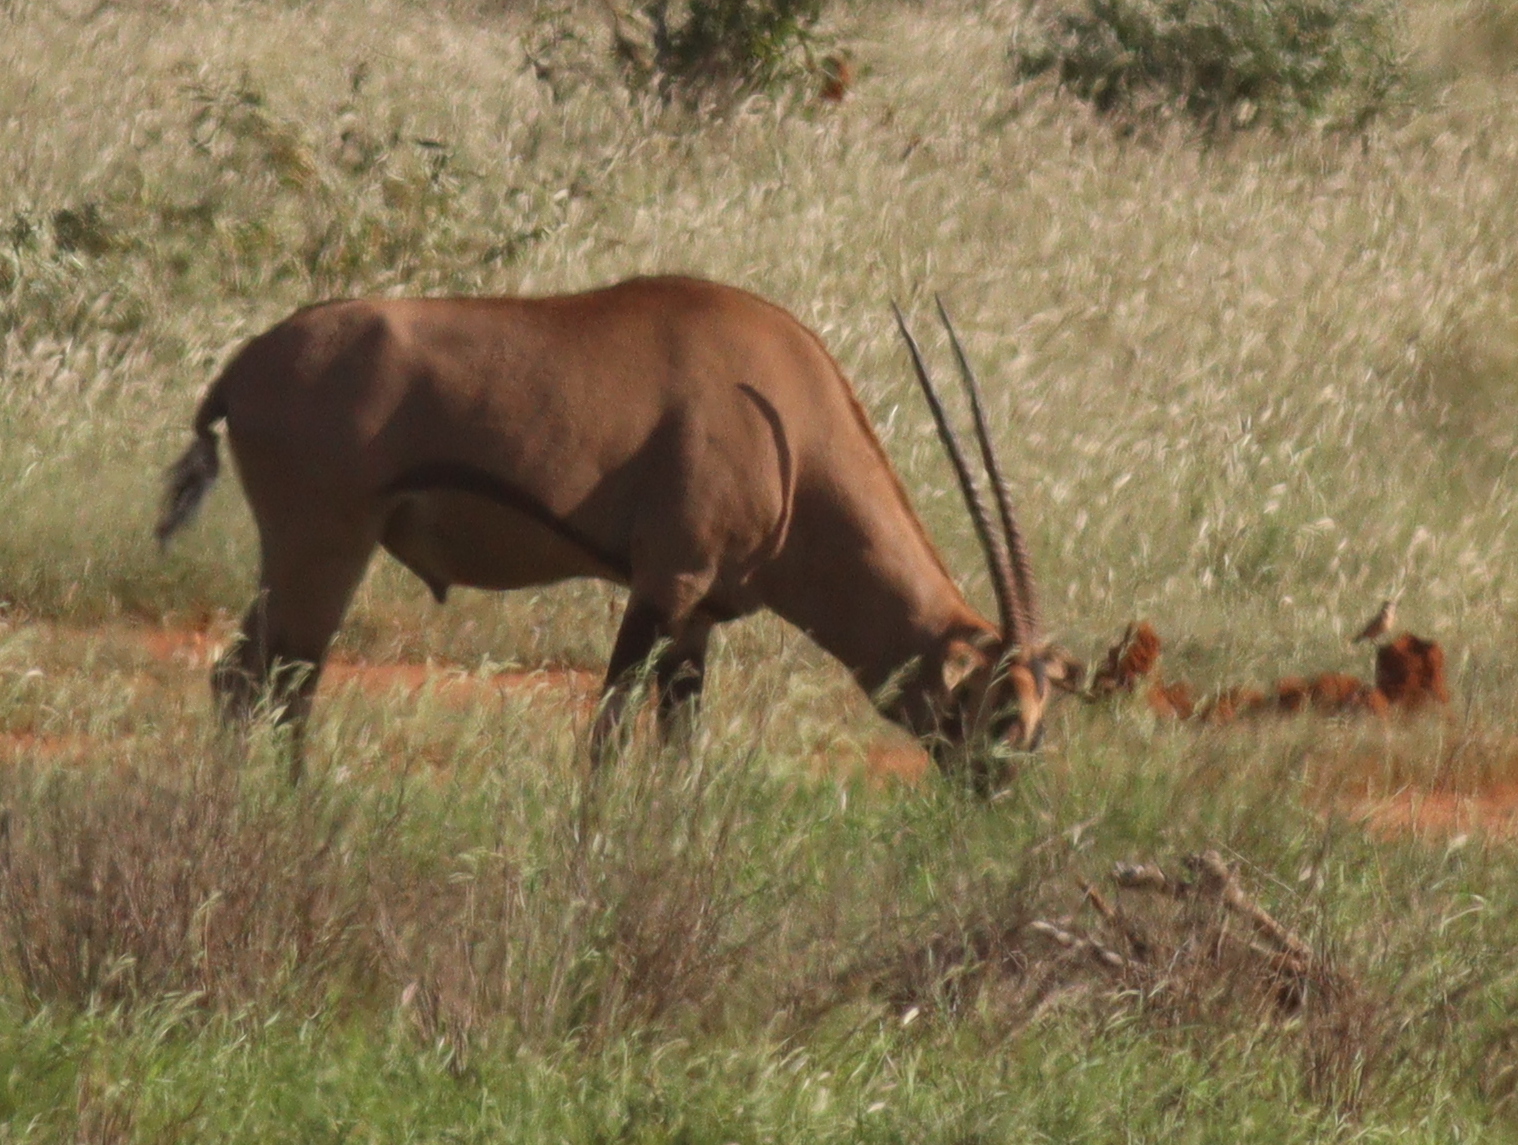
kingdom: Animalia
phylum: Chordata
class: Mammalia
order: Artiodactyla
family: Bovidae
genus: Oryx
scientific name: Oryx beisa
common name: Beisa
